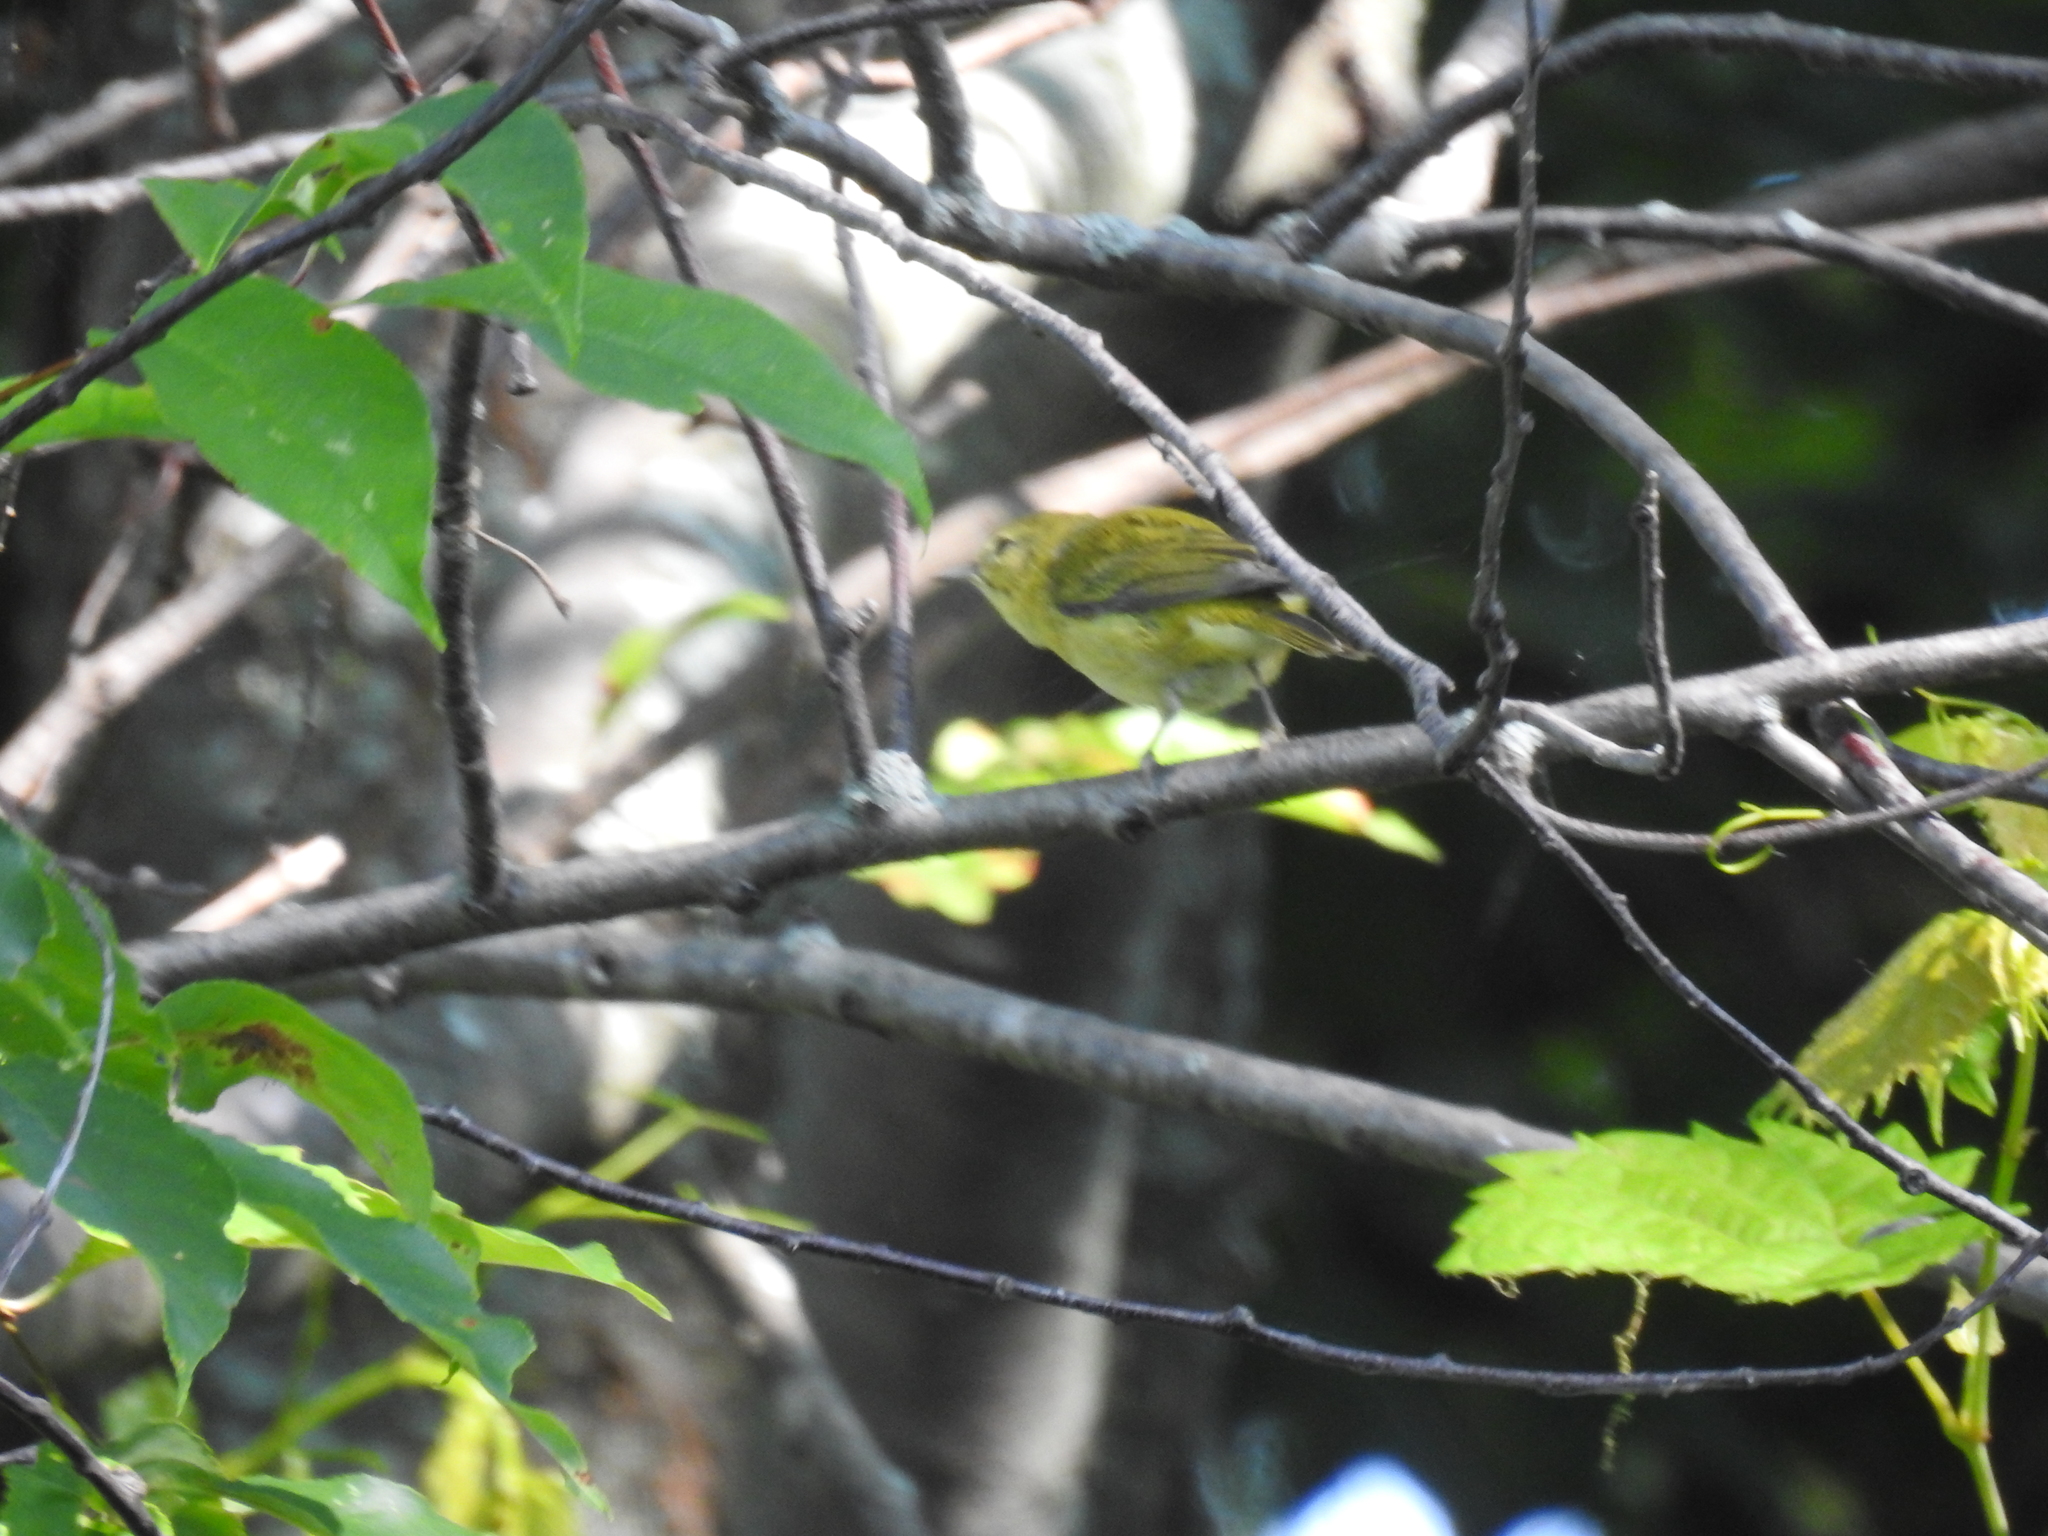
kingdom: Animalia
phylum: Chordata
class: Aves
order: Passeriformes
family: Parulidae
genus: Leiothlypis
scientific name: Leiothlypis peregrina
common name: Tennessee warbler
